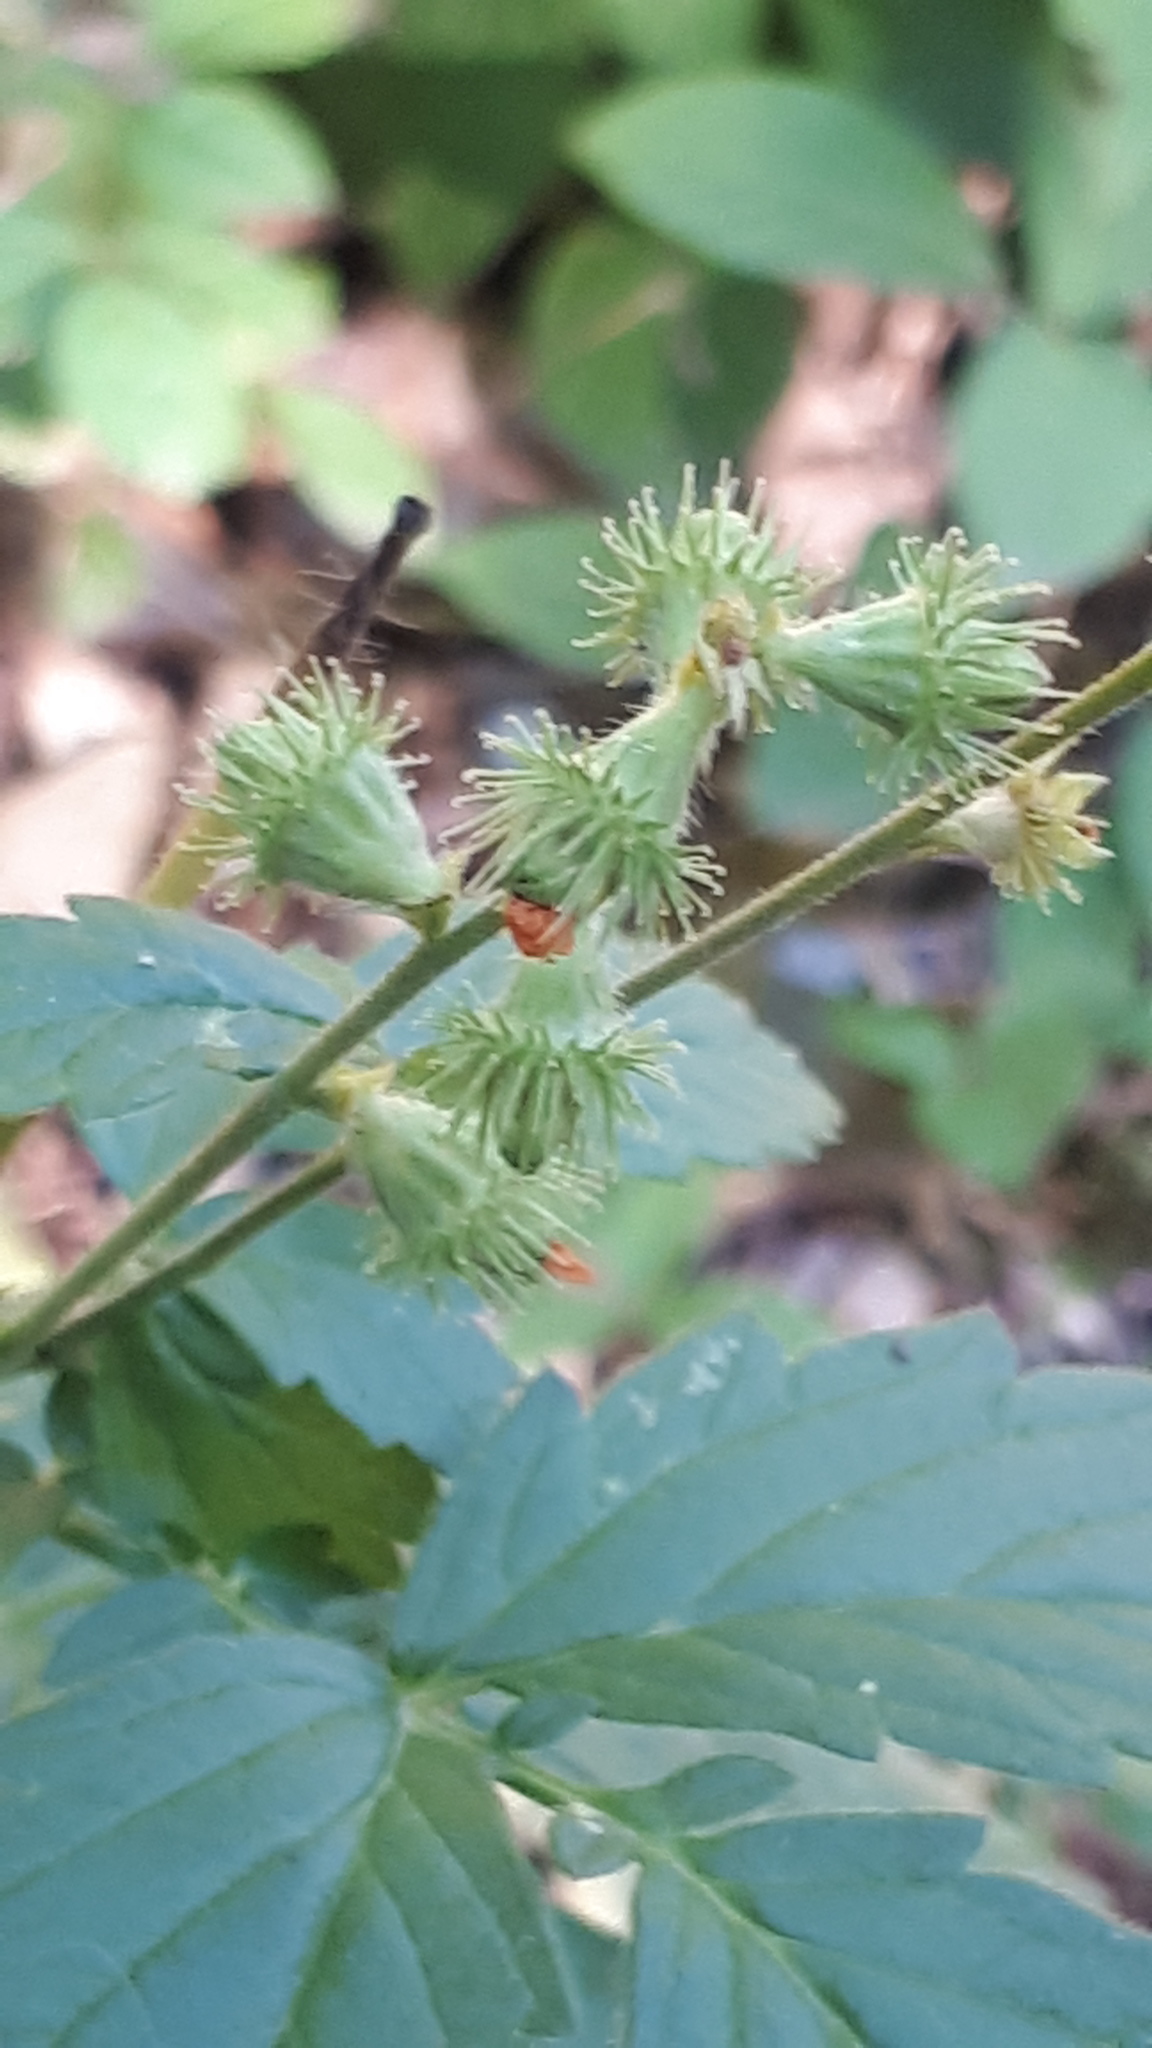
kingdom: Plantae
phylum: Tracheophyta
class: Magnoliopsida
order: Rosales
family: Rosaceae
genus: Agrimonia
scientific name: Agrimonia eupatoria
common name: Agrimony
